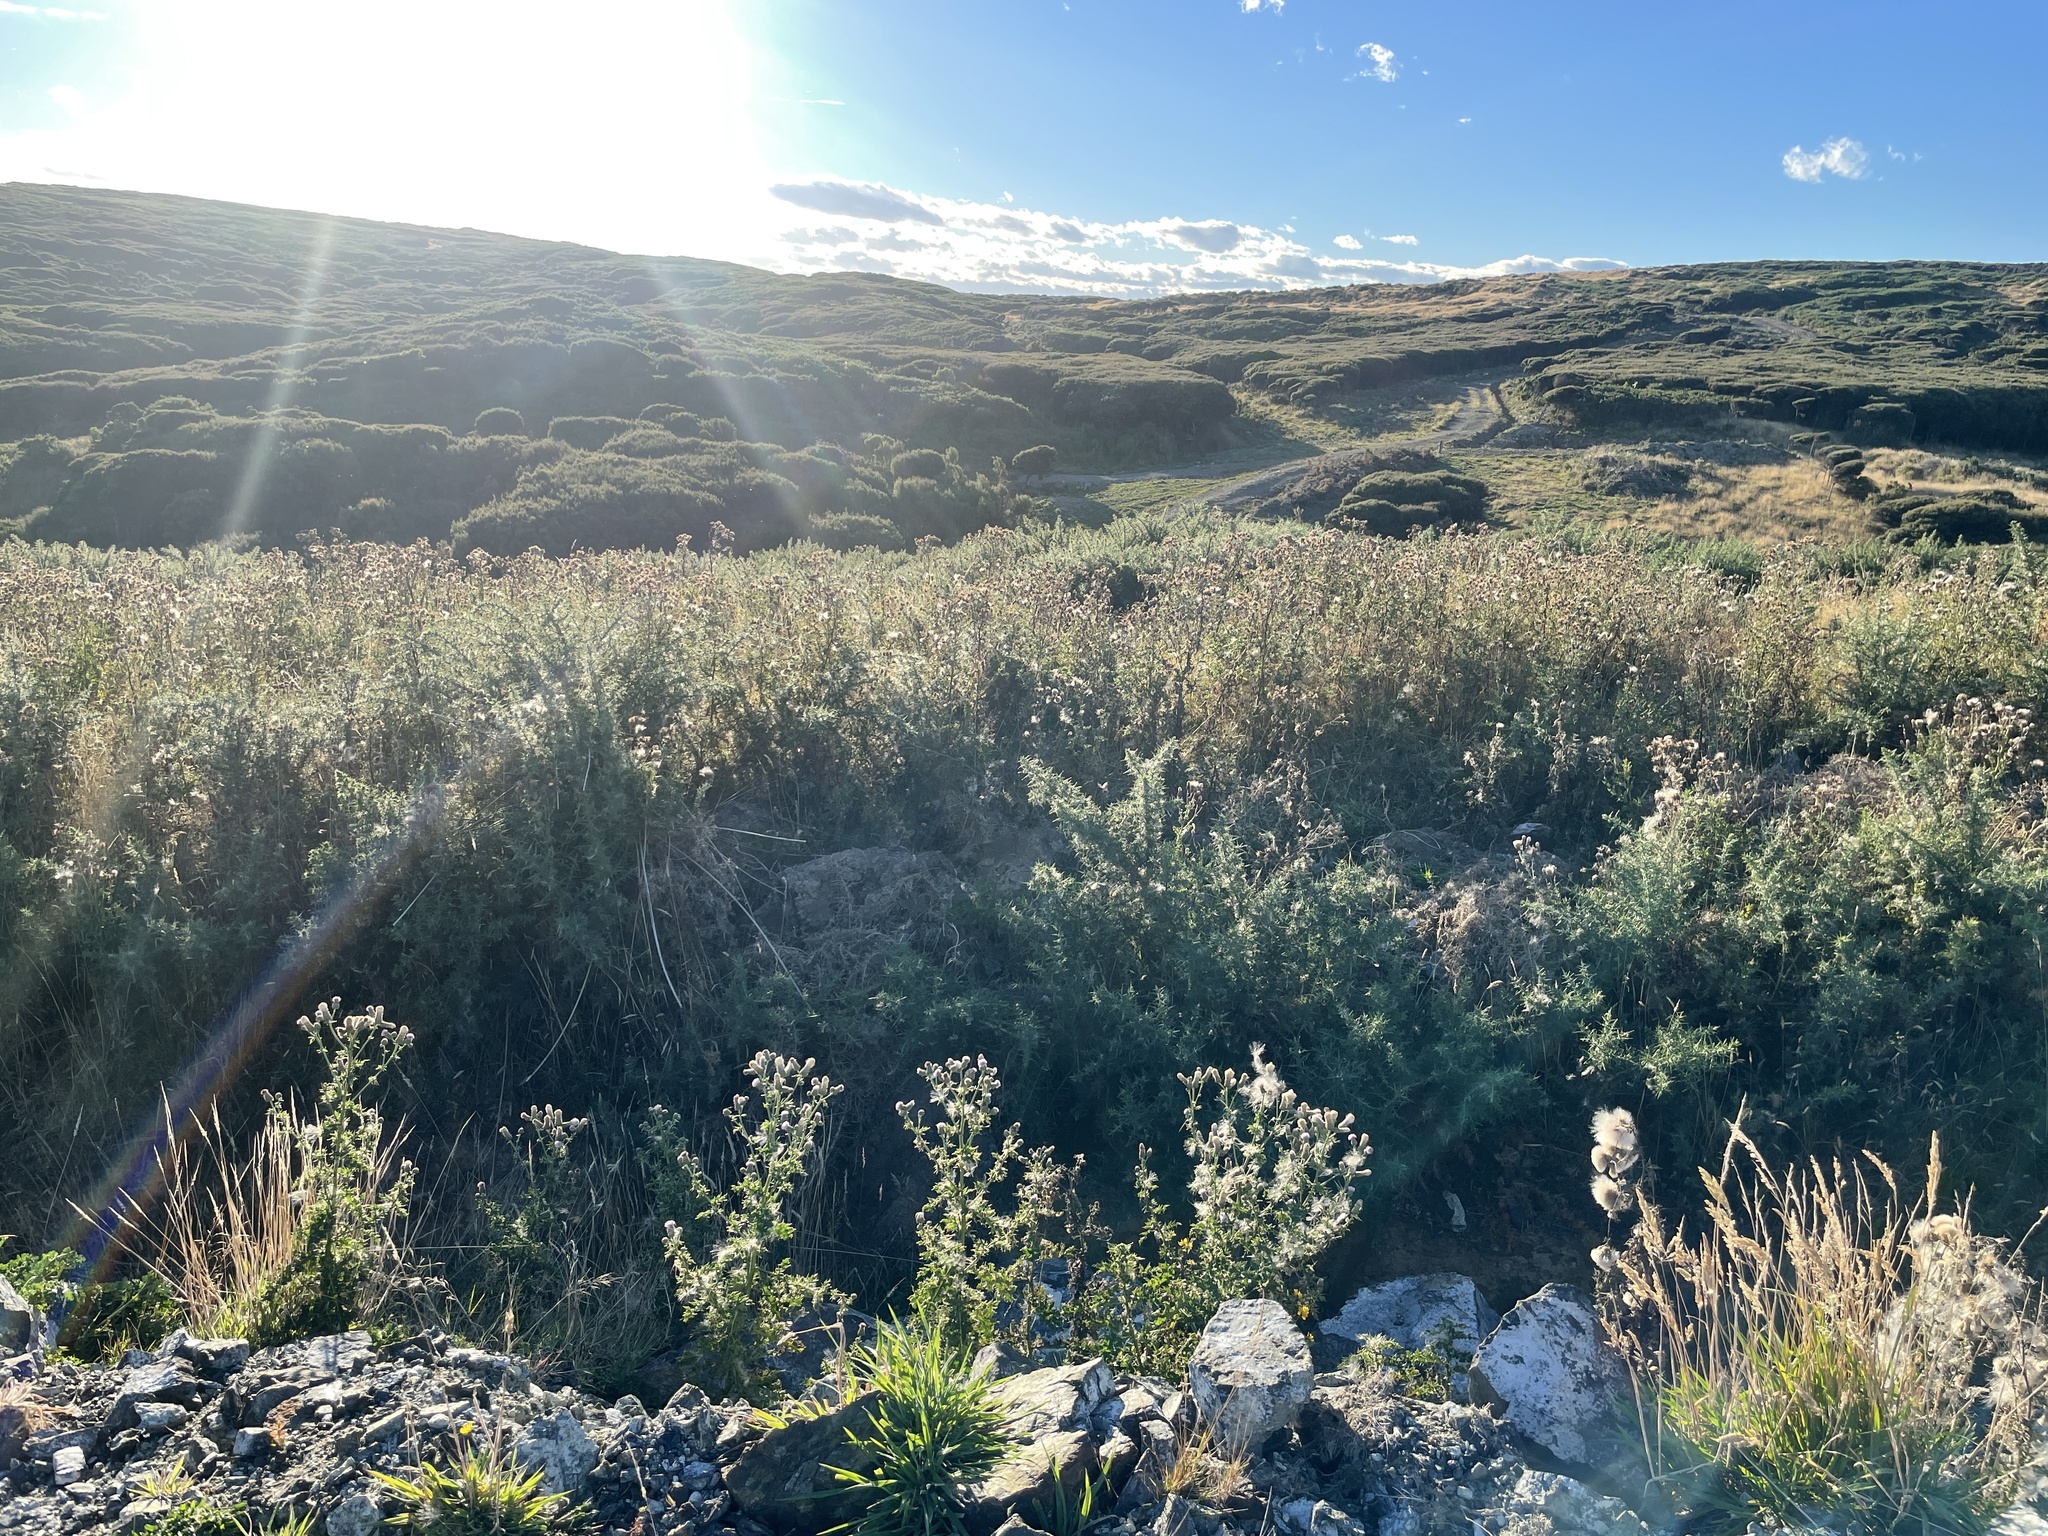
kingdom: Plantae
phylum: Tracheophyta
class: Magnoliopsida
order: Asterales
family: Asteraceae
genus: Cirsium
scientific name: Cirsium arvense
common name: Creeping thistle
